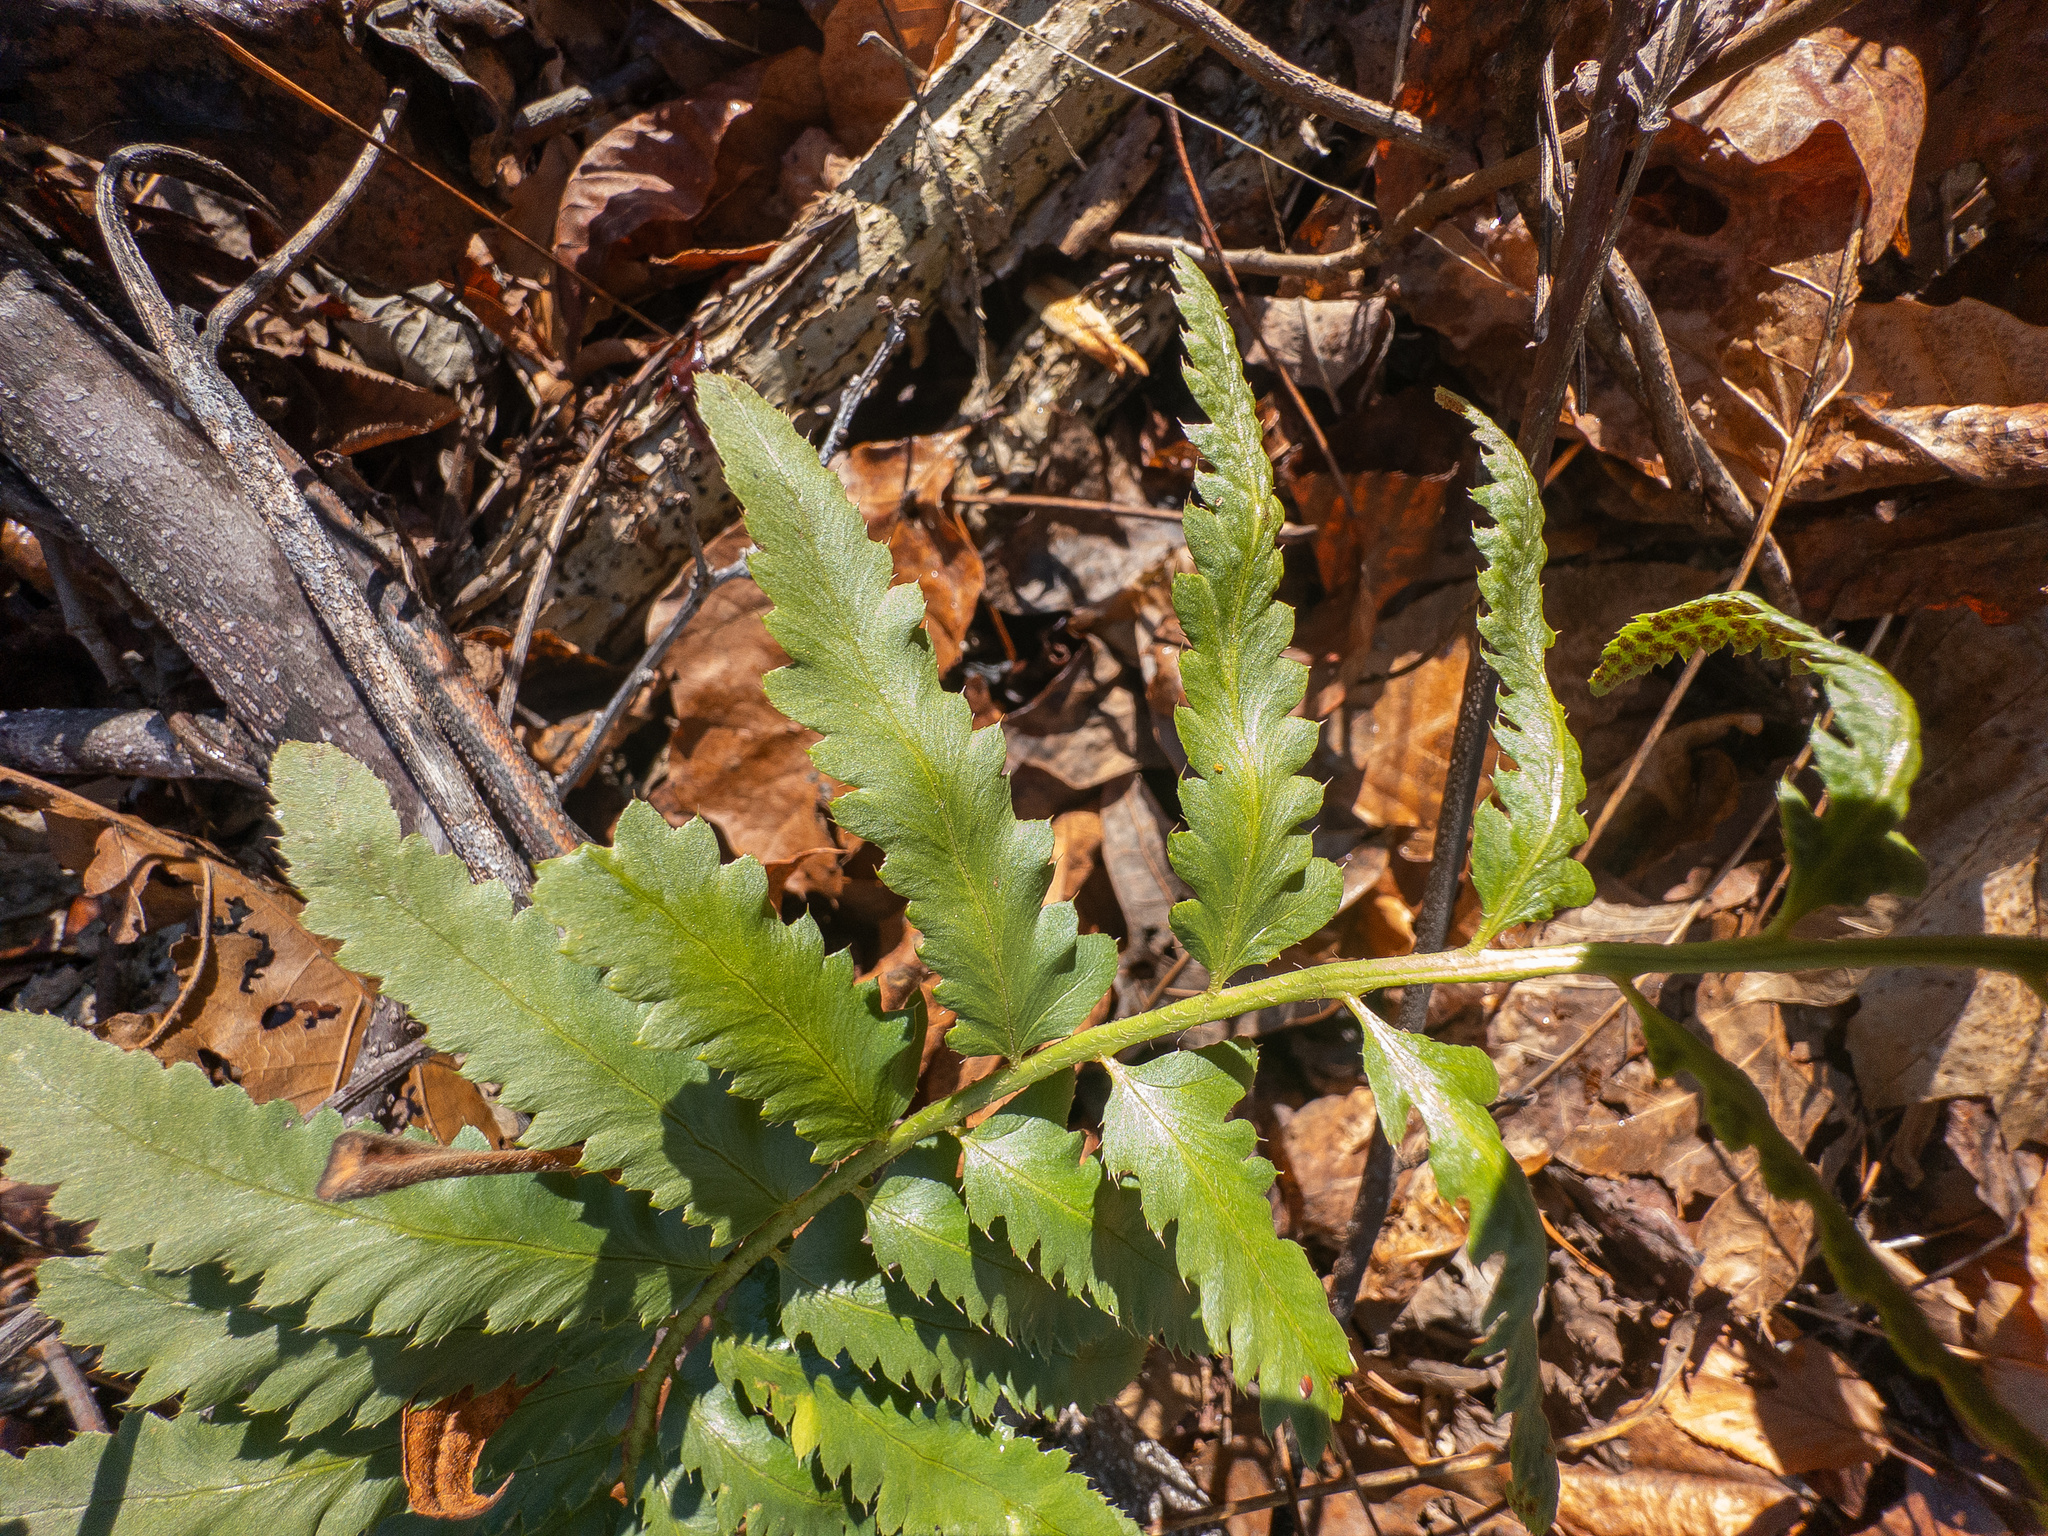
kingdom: Plantae
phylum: Tracheophyta
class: Polypodiopsida
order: Polypodiales
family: Dryopteridaceae
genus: Polystichum
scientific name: Polystichum acrostichoides
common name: Christmas fern
